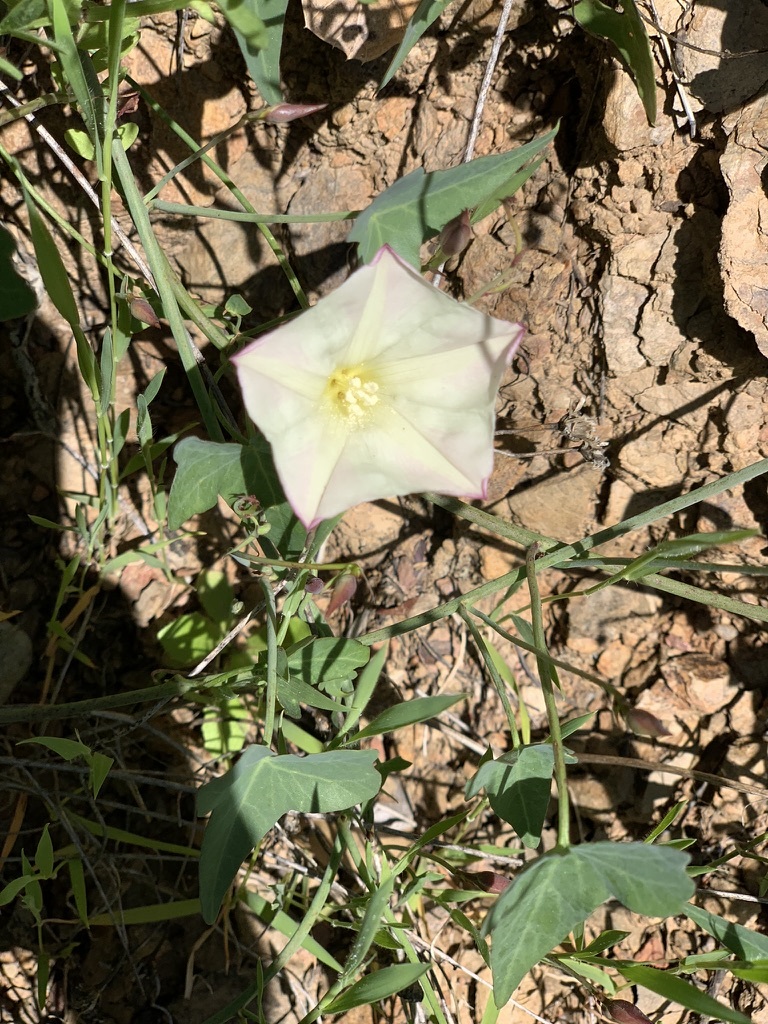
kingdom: Plantae
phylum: Tracheophyta
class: Magnoliopsida
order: Solanales
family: Convolvulaceae
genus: Calystegia
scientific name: Calystegia purpurata
